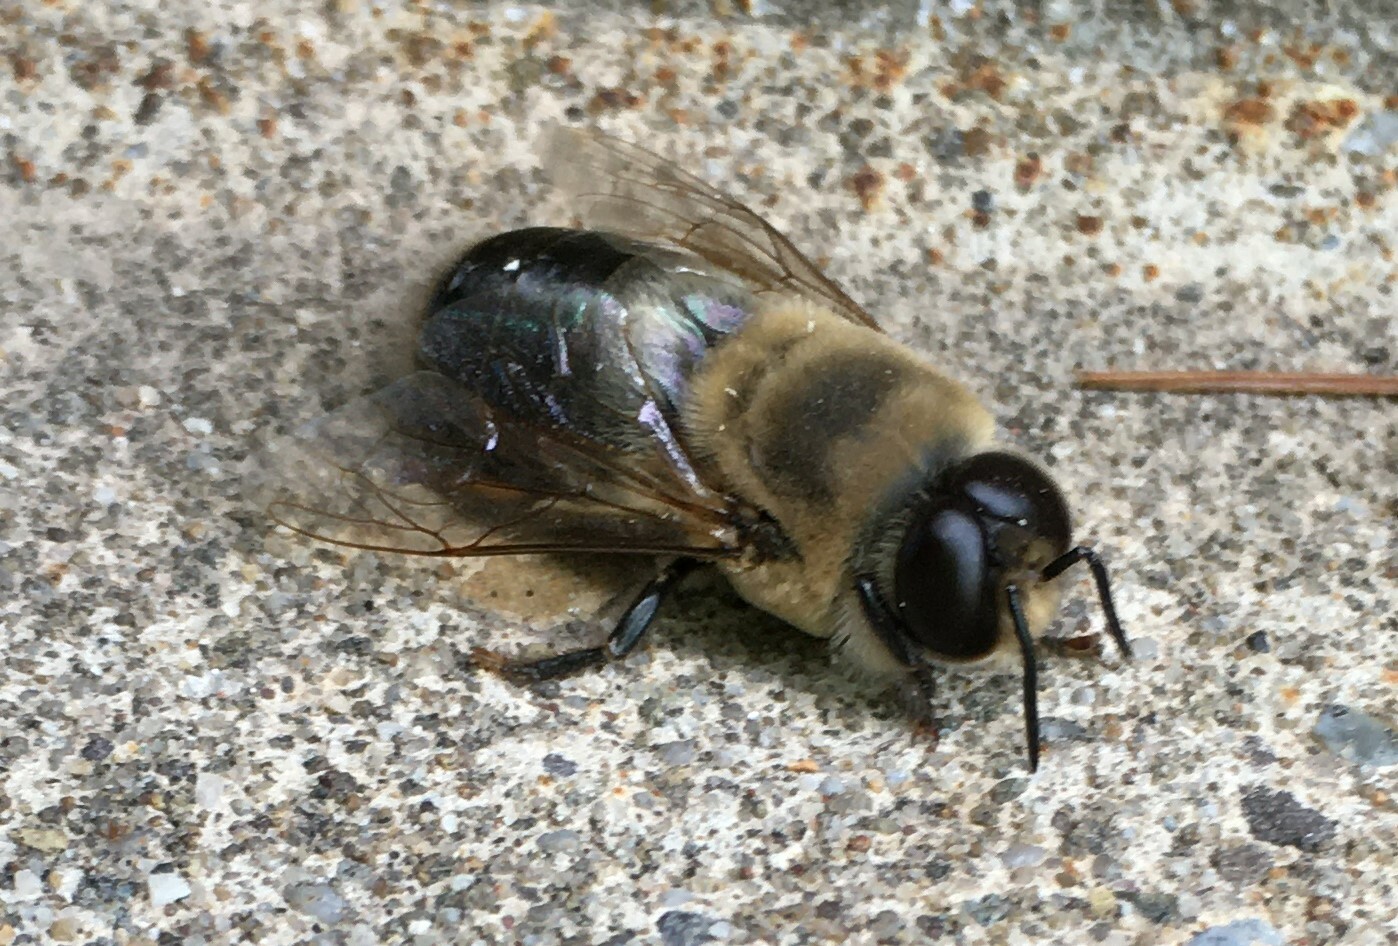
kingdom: Animalia
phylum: Arthropoda
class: Insecta
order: Hymenoptera
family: Apidae
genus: Apis
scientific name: Apis mellifera
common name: Honey bee
